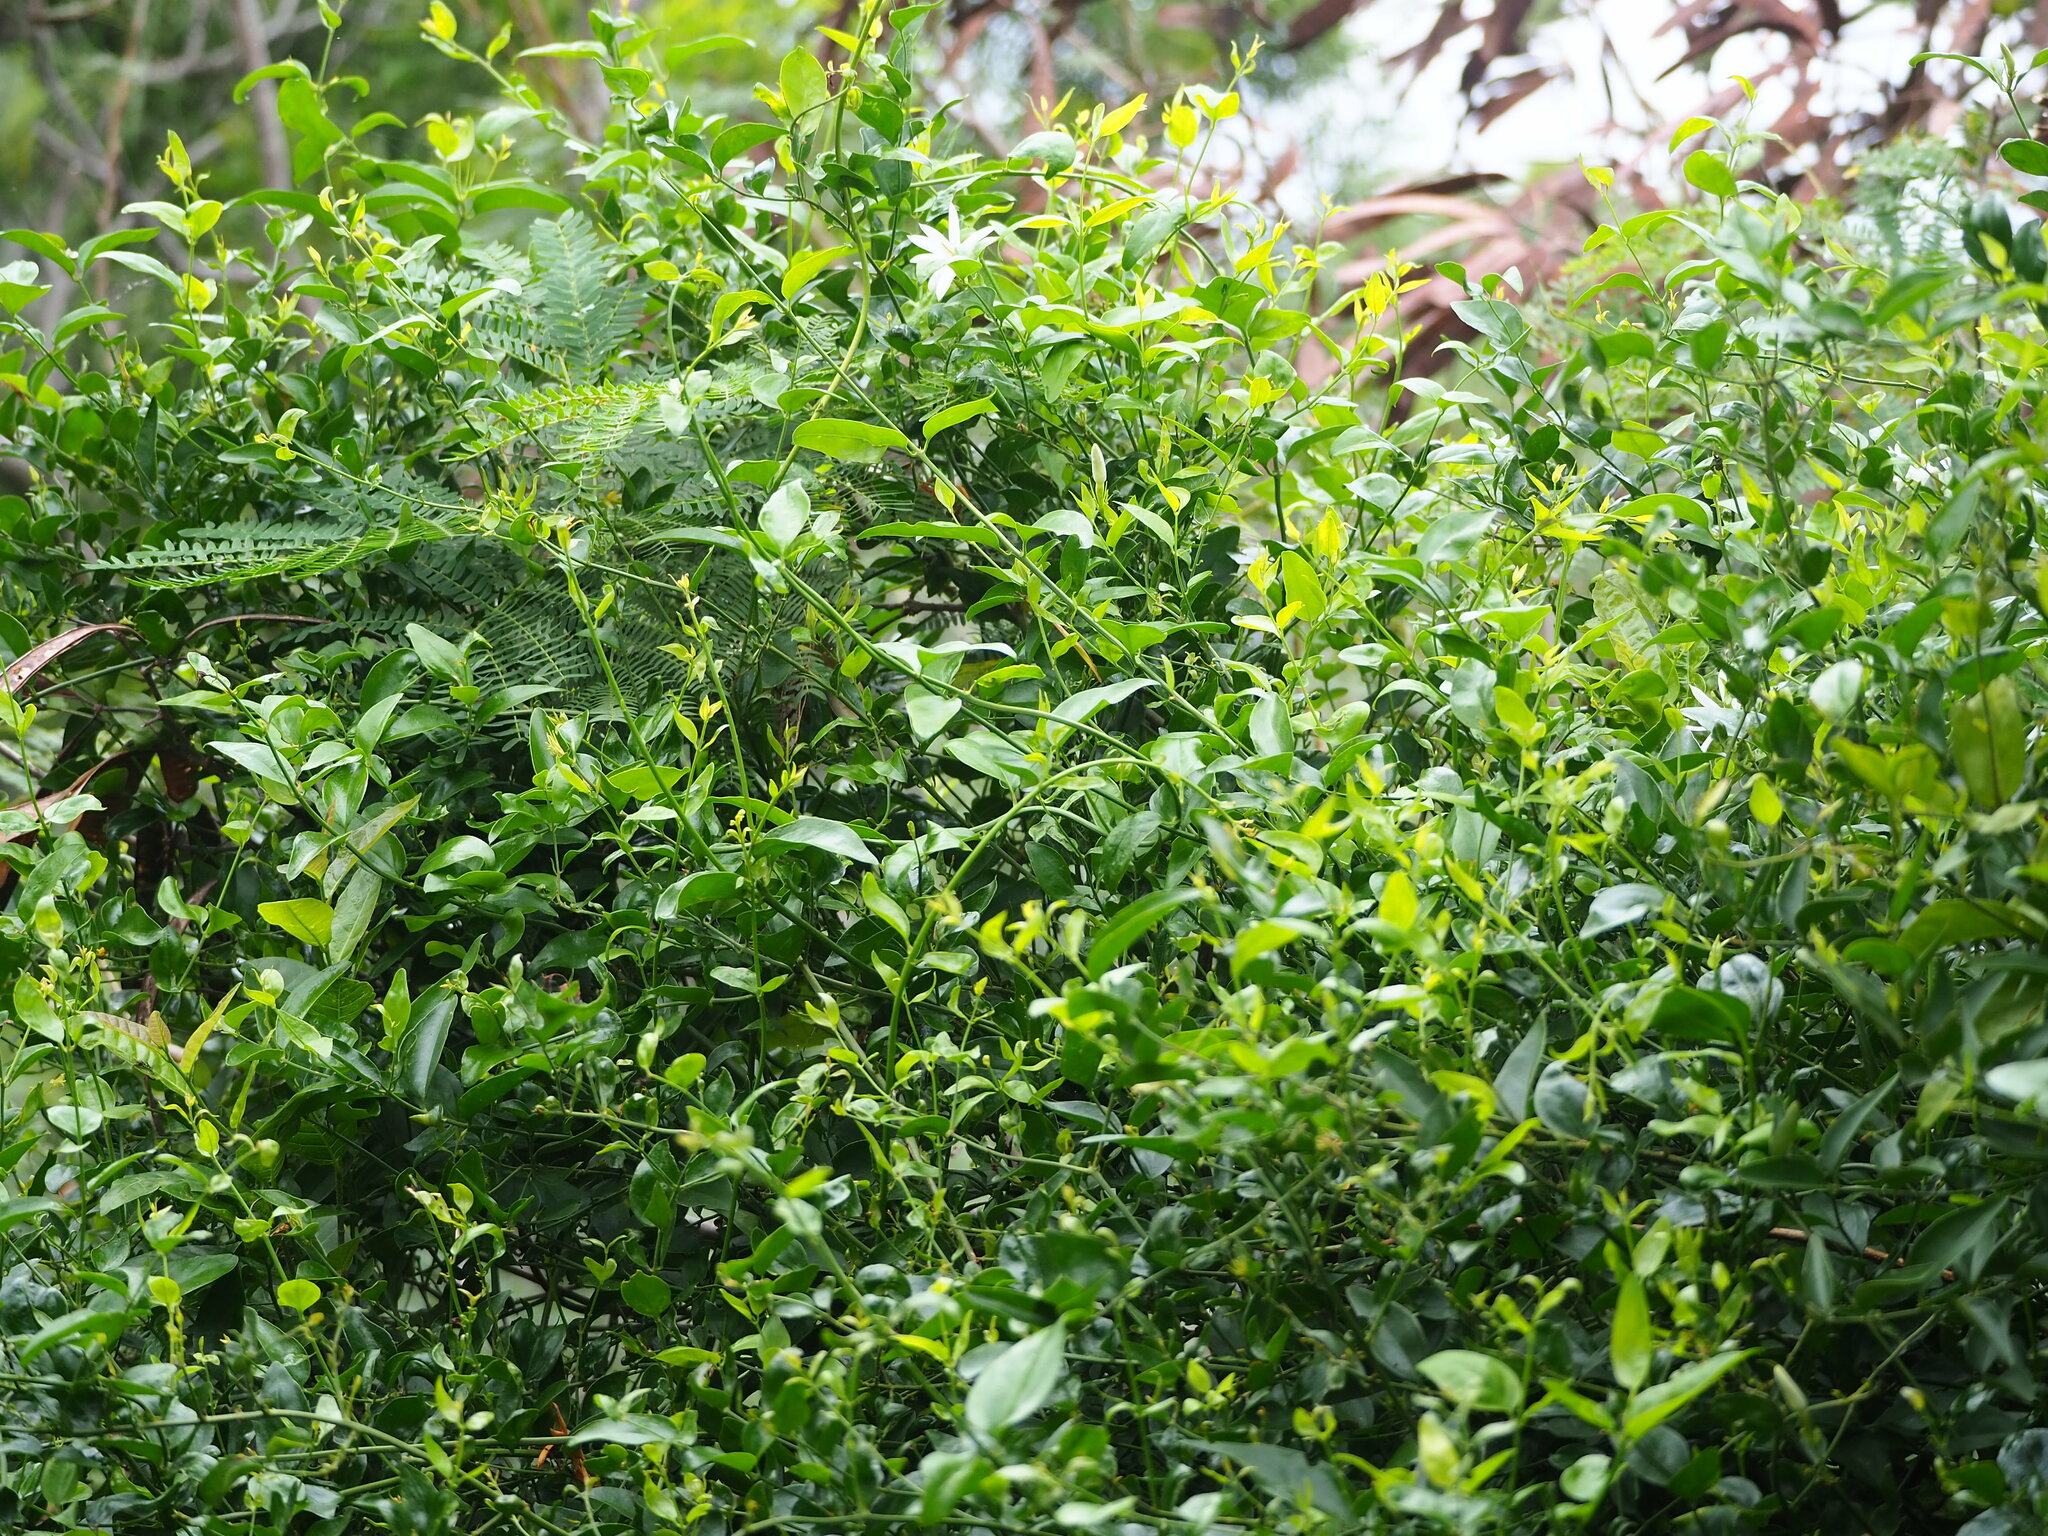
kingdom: Plantae
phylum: Tracheophyta
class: Magnoliopsida
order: Lamiales
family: Oleaceae
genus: Jasminum
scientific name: Jasminum nervosum
